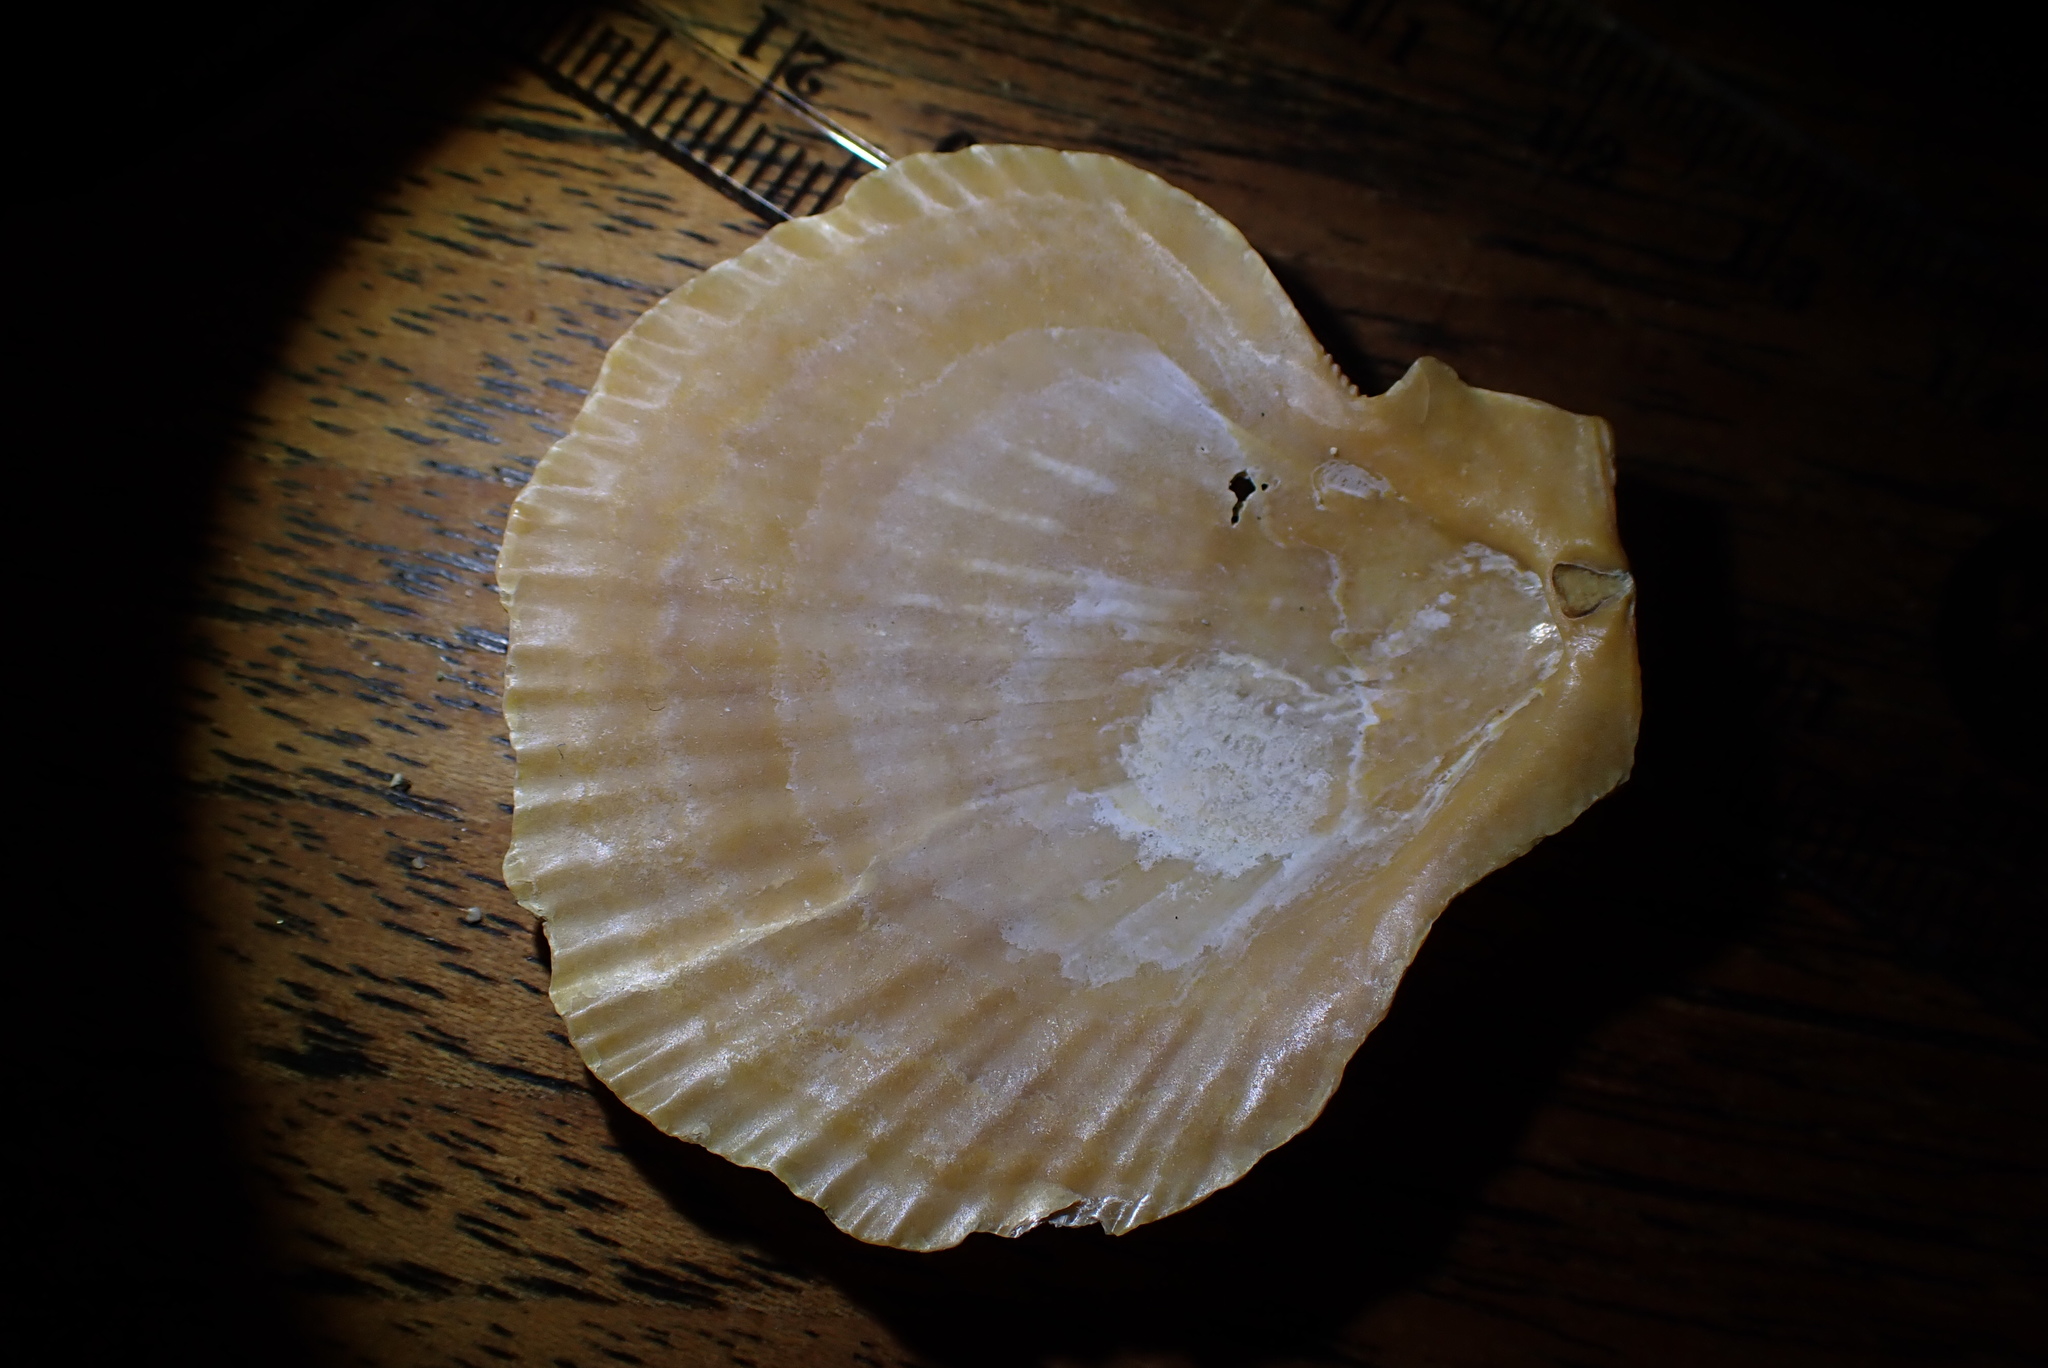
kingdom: Animalia
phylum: Mollusca
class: Bivalvia
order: Pectinida
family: Pectinidae
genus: Talochlamys
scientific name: Talochlamys gemmulata
